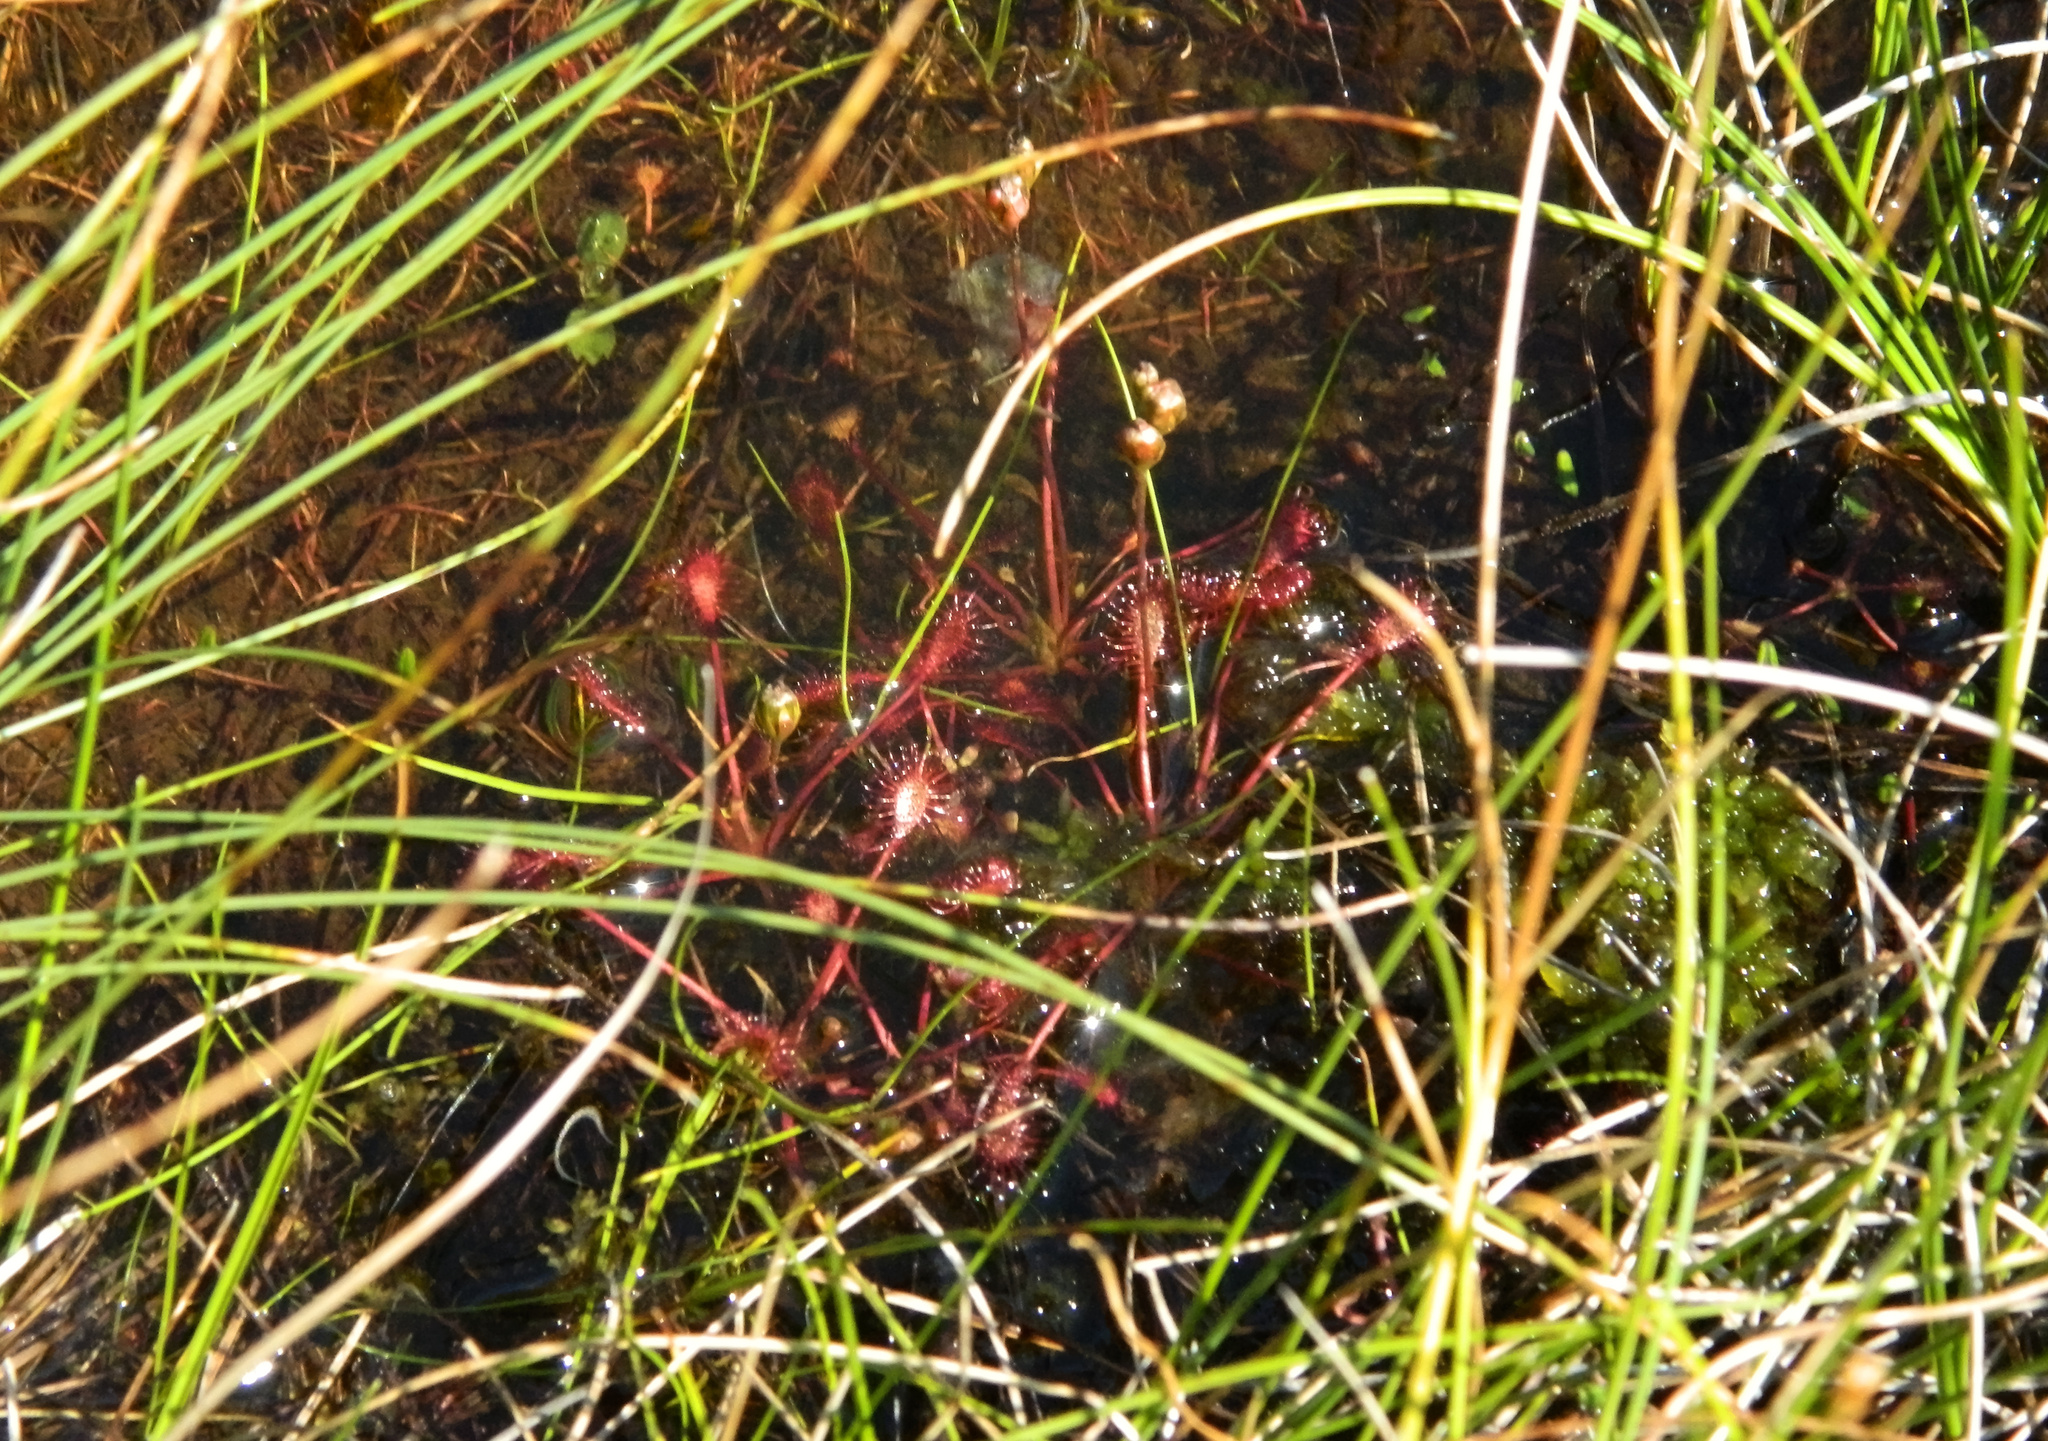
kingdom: Plantae
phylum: Tracheophyta
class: Magnoliopsida
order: Caryophyllales
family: Droseraceae
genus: Drosera
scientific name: Drosera intermedia
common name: Oblong-leaved sundew
